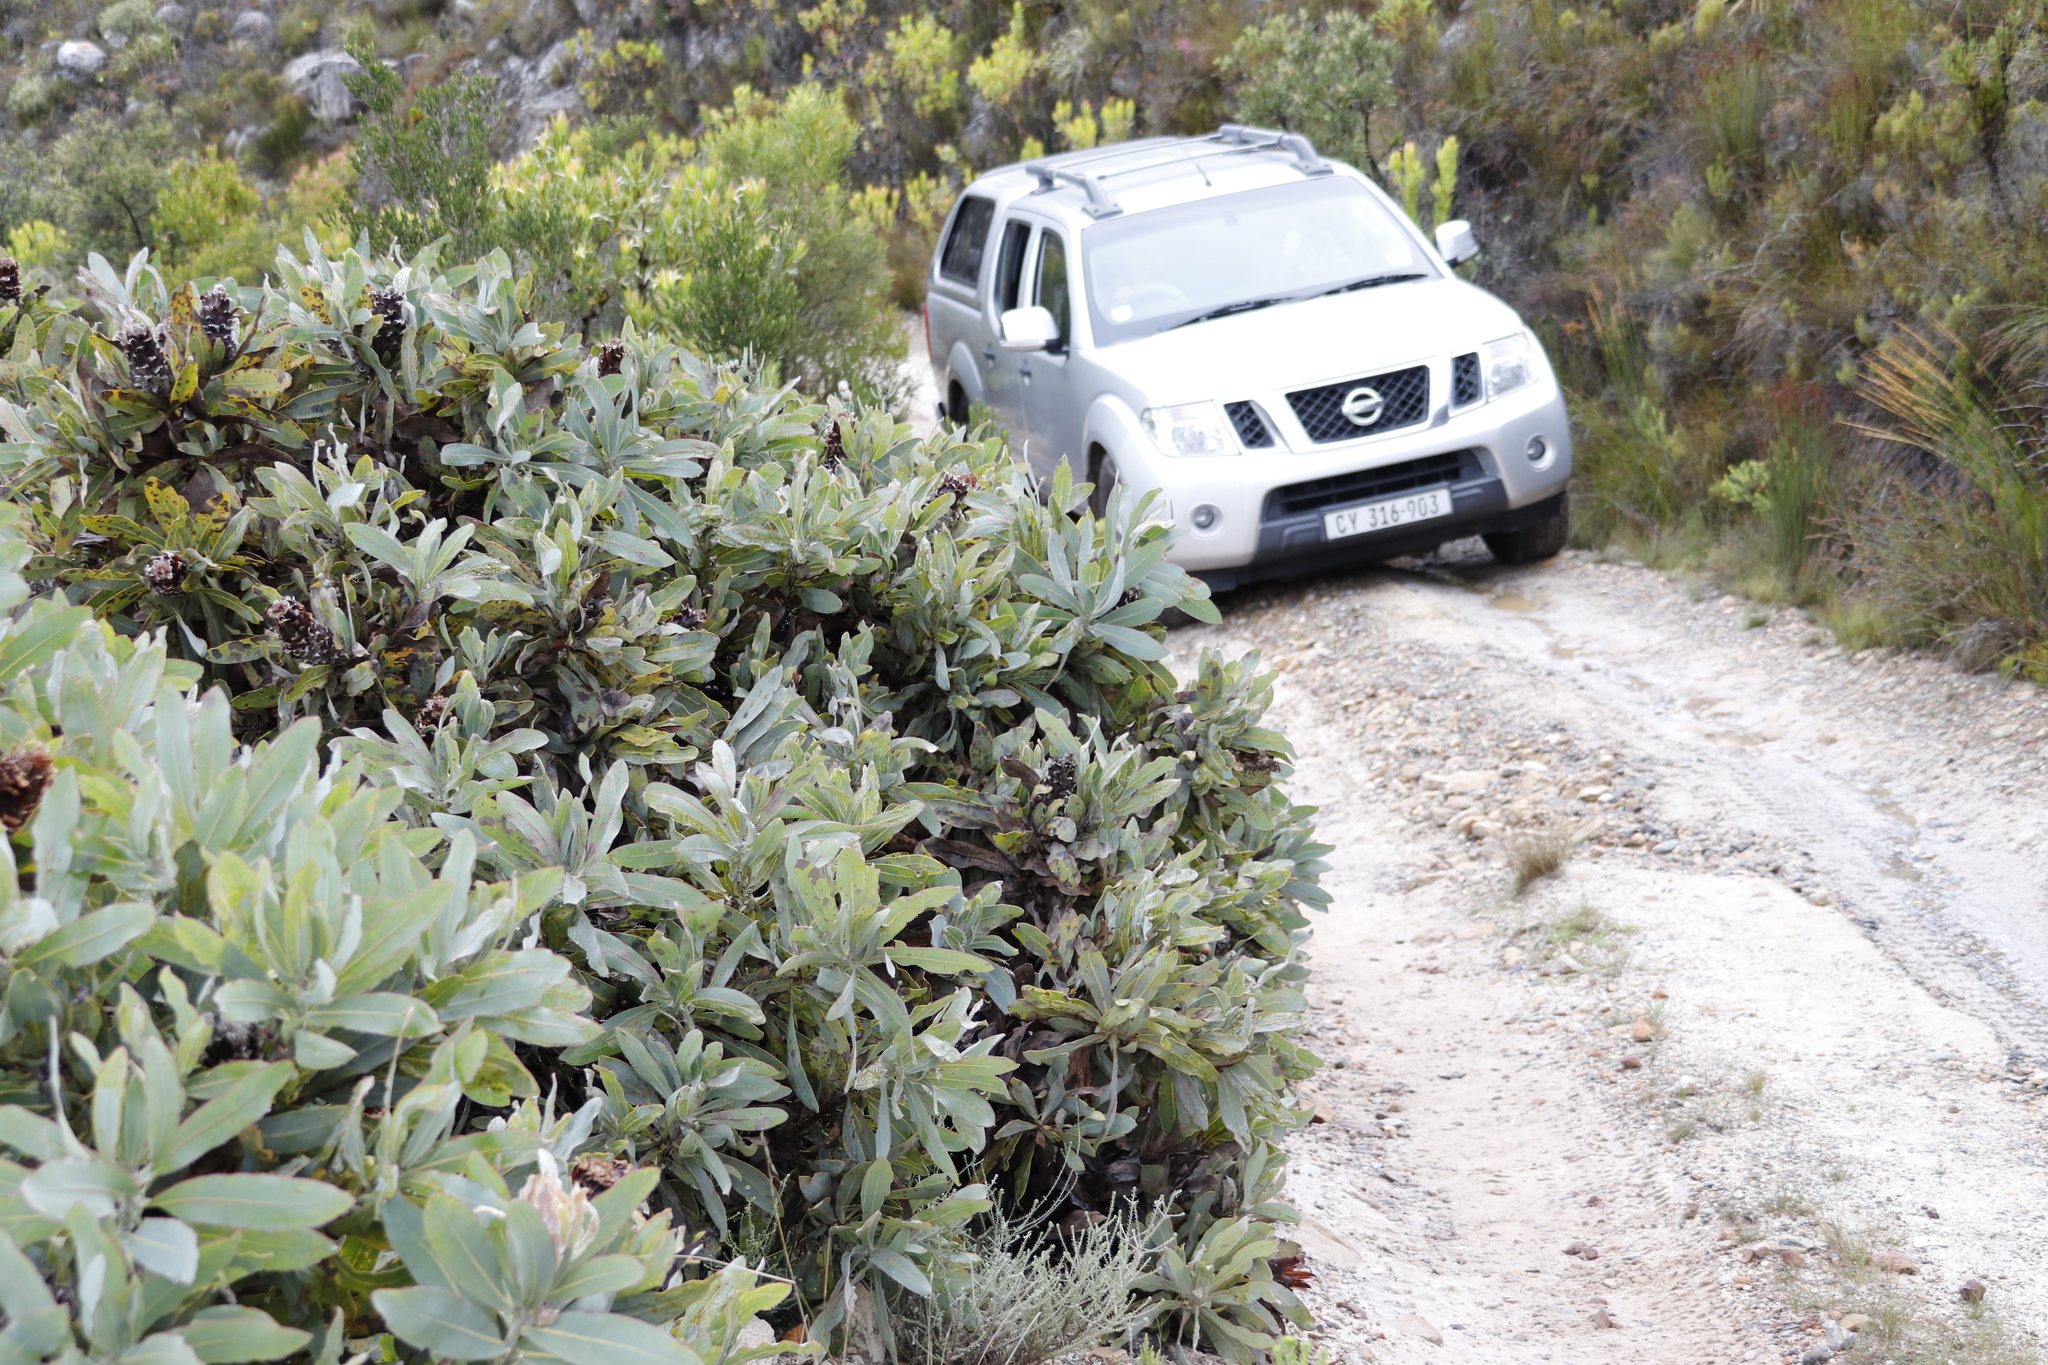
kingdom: Plantae
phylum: Tracheophyta
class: Magnoliopsida
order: Proteales
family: Proteaceae
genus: Protea
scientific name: Protea magnifica
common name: Bearded sugarbush
